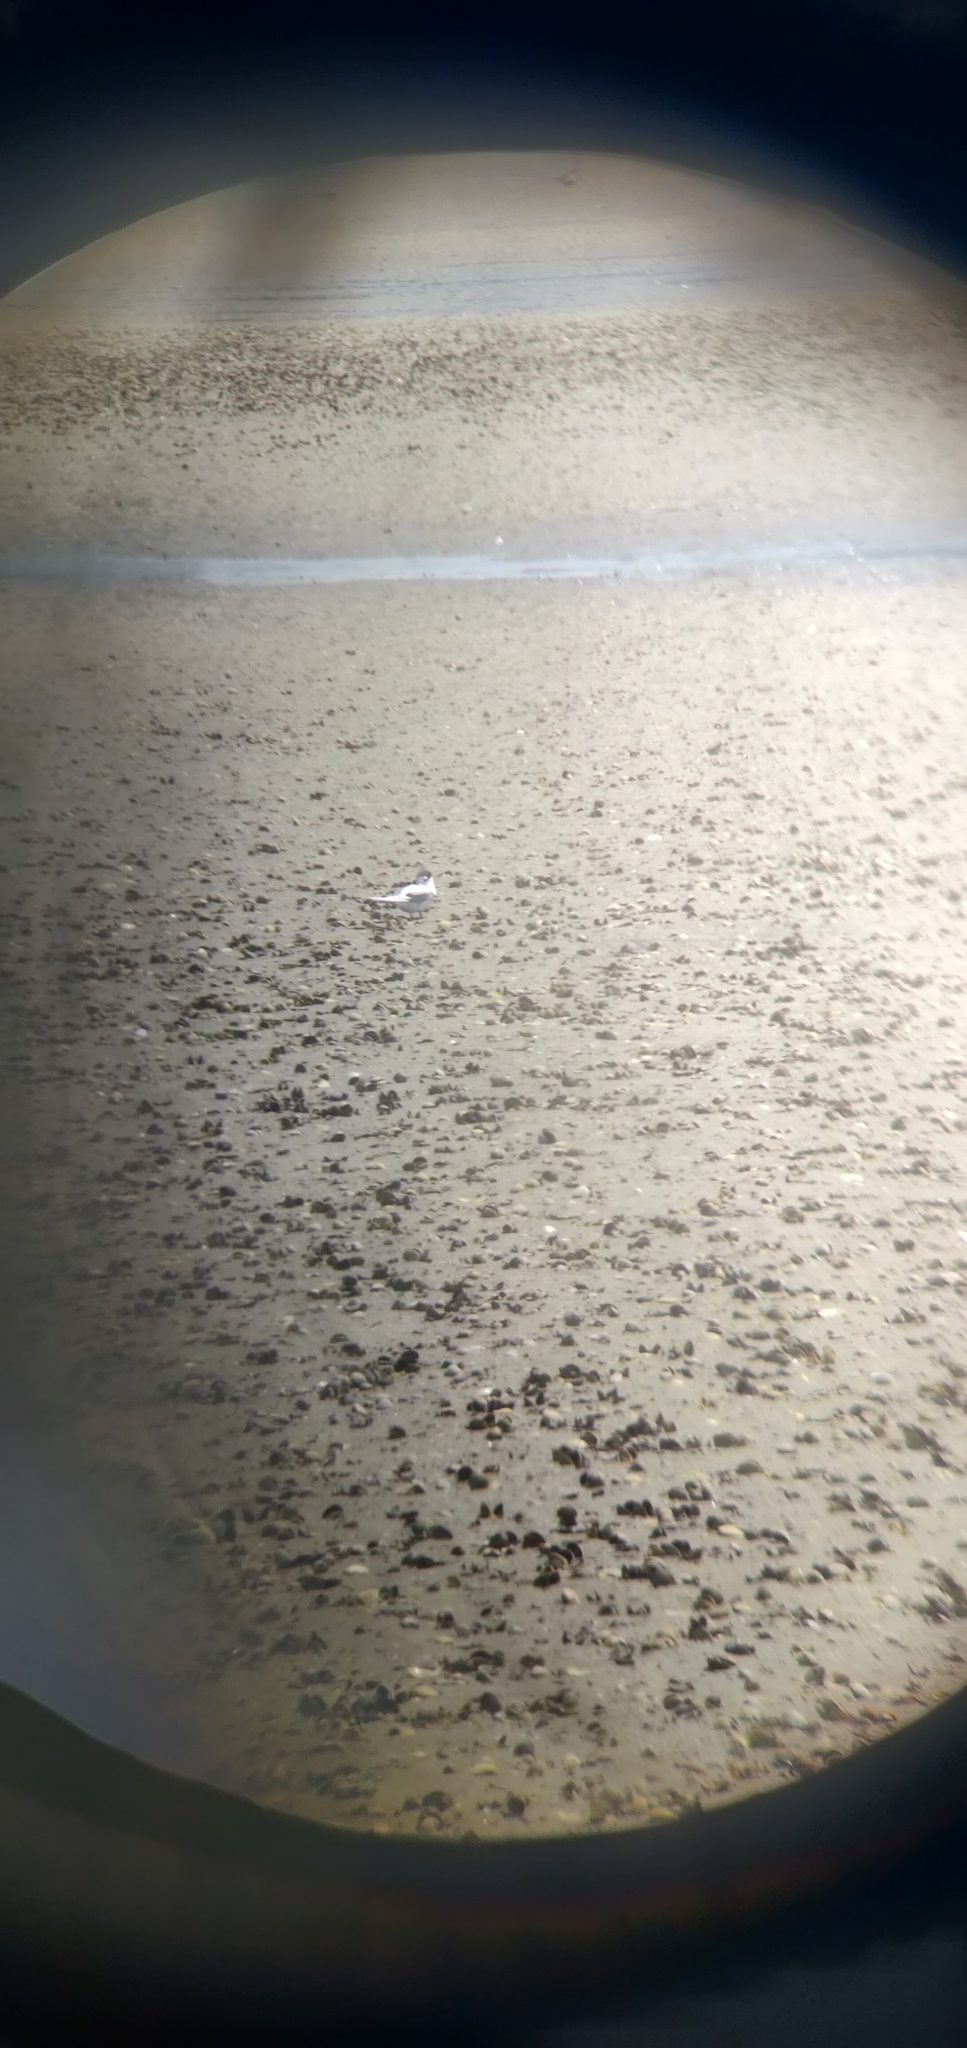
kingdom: Animalia
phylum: Chordata
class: Aves
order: Charadriiformes
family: Laridae
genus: Sternula
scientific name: Sternula nereis
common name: Fairy tern
